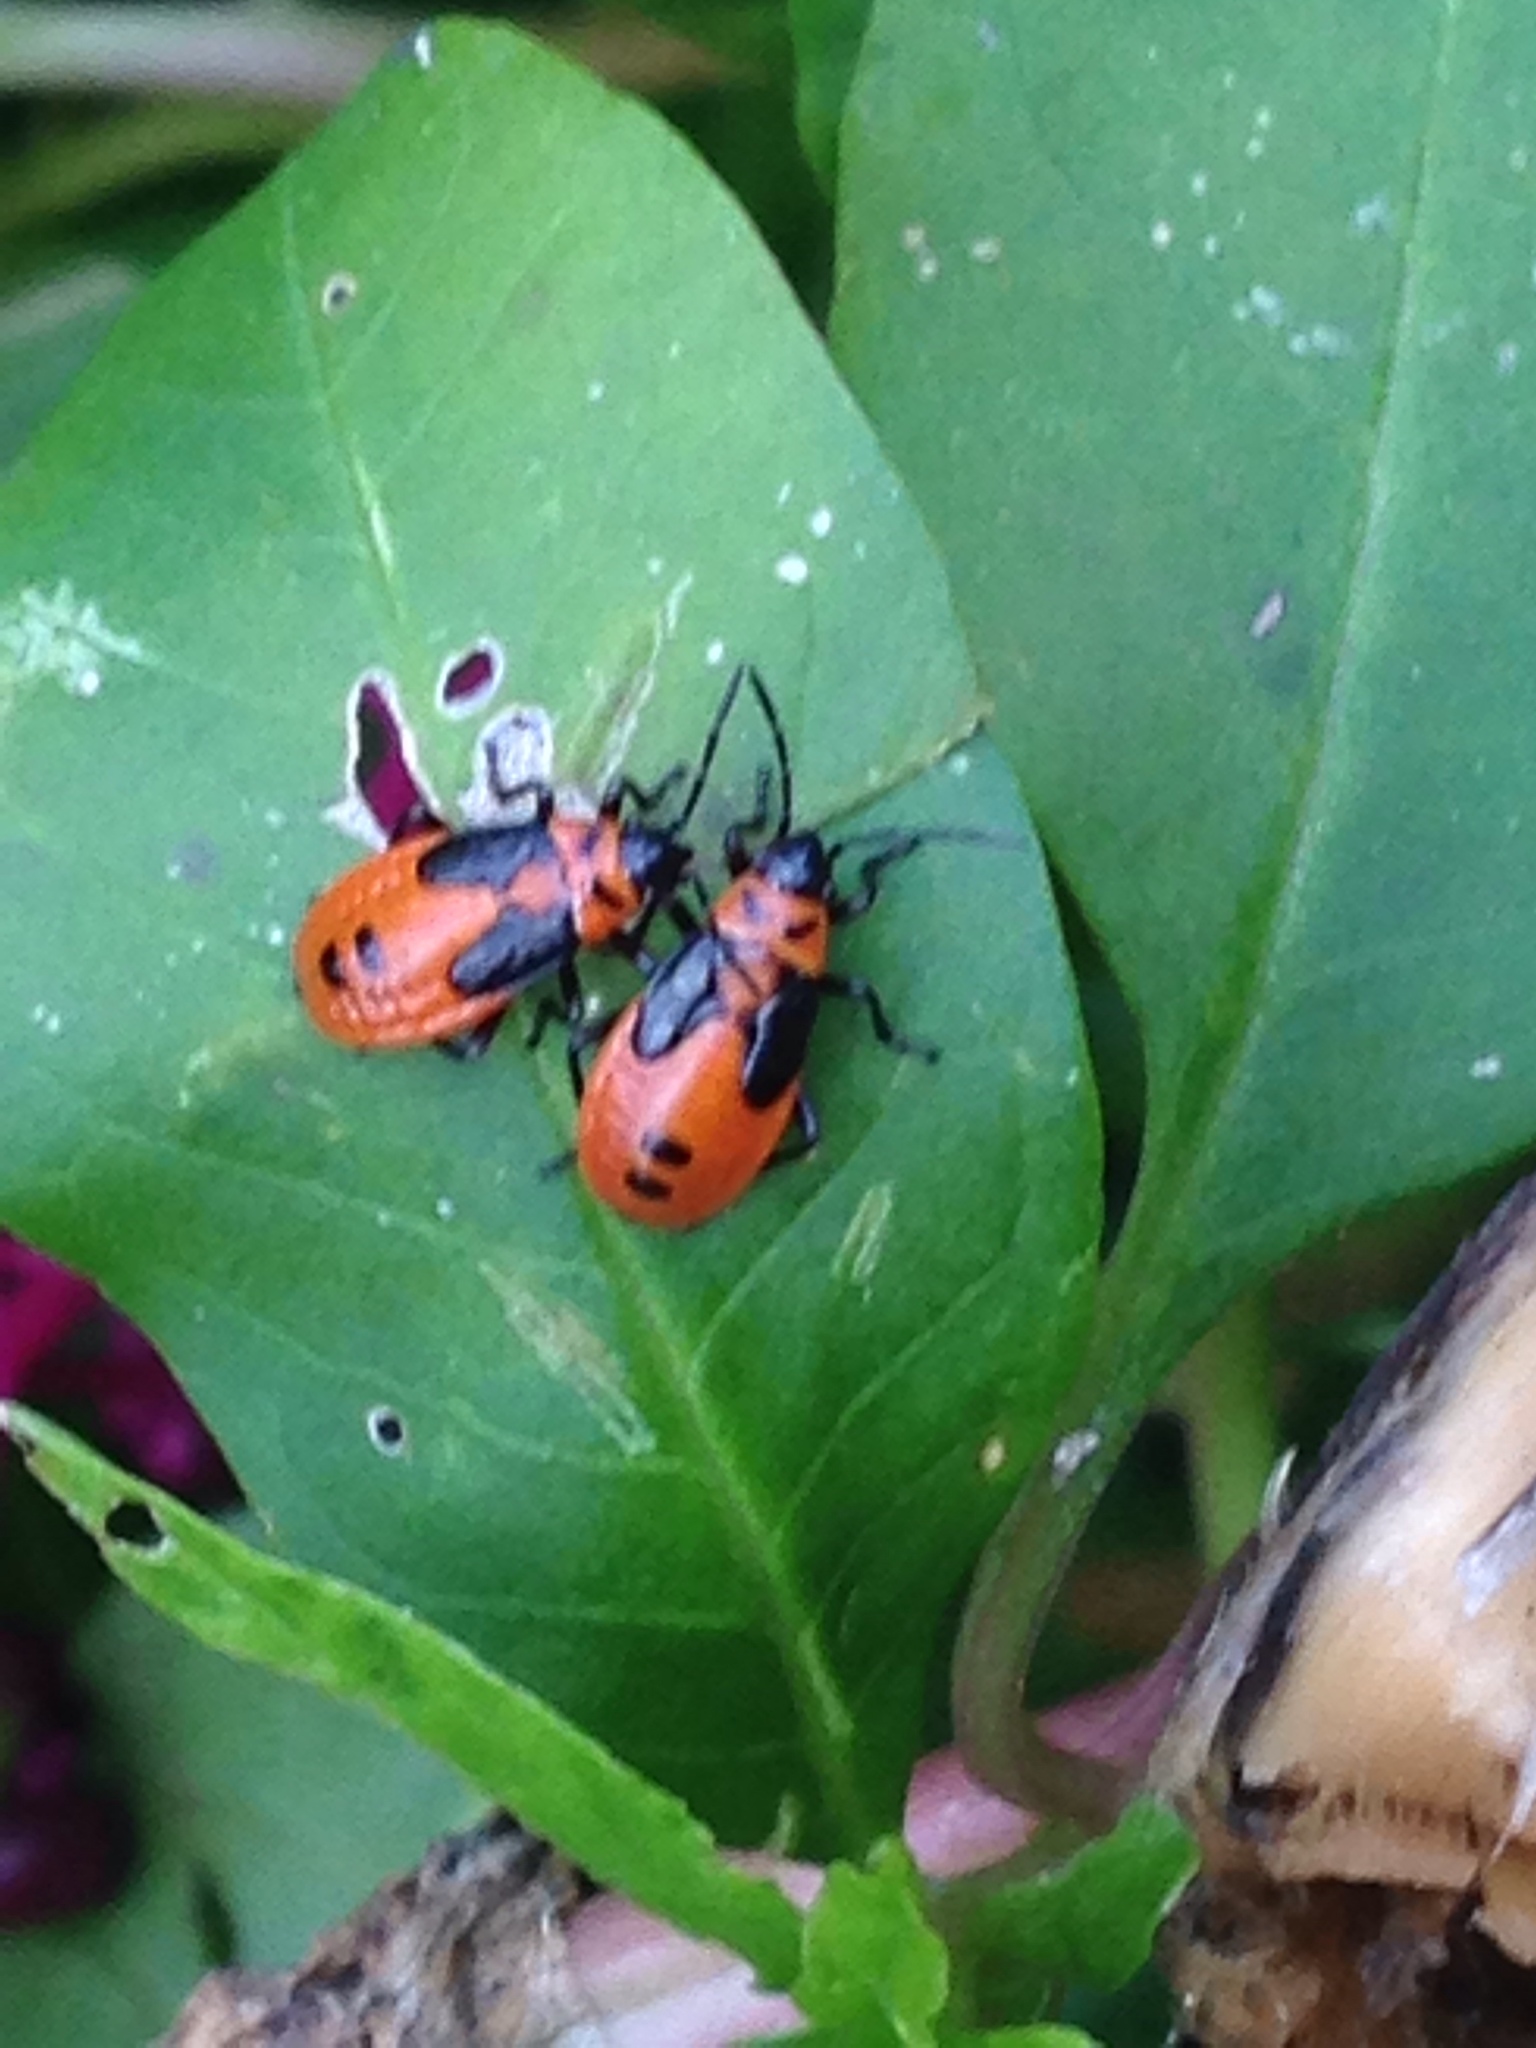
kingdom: Animalia
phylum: Arthropoda
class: Insecta
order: Hemiptera
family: Lygaeidae
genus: Lygaeus
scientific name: Lygaeus turcicus
